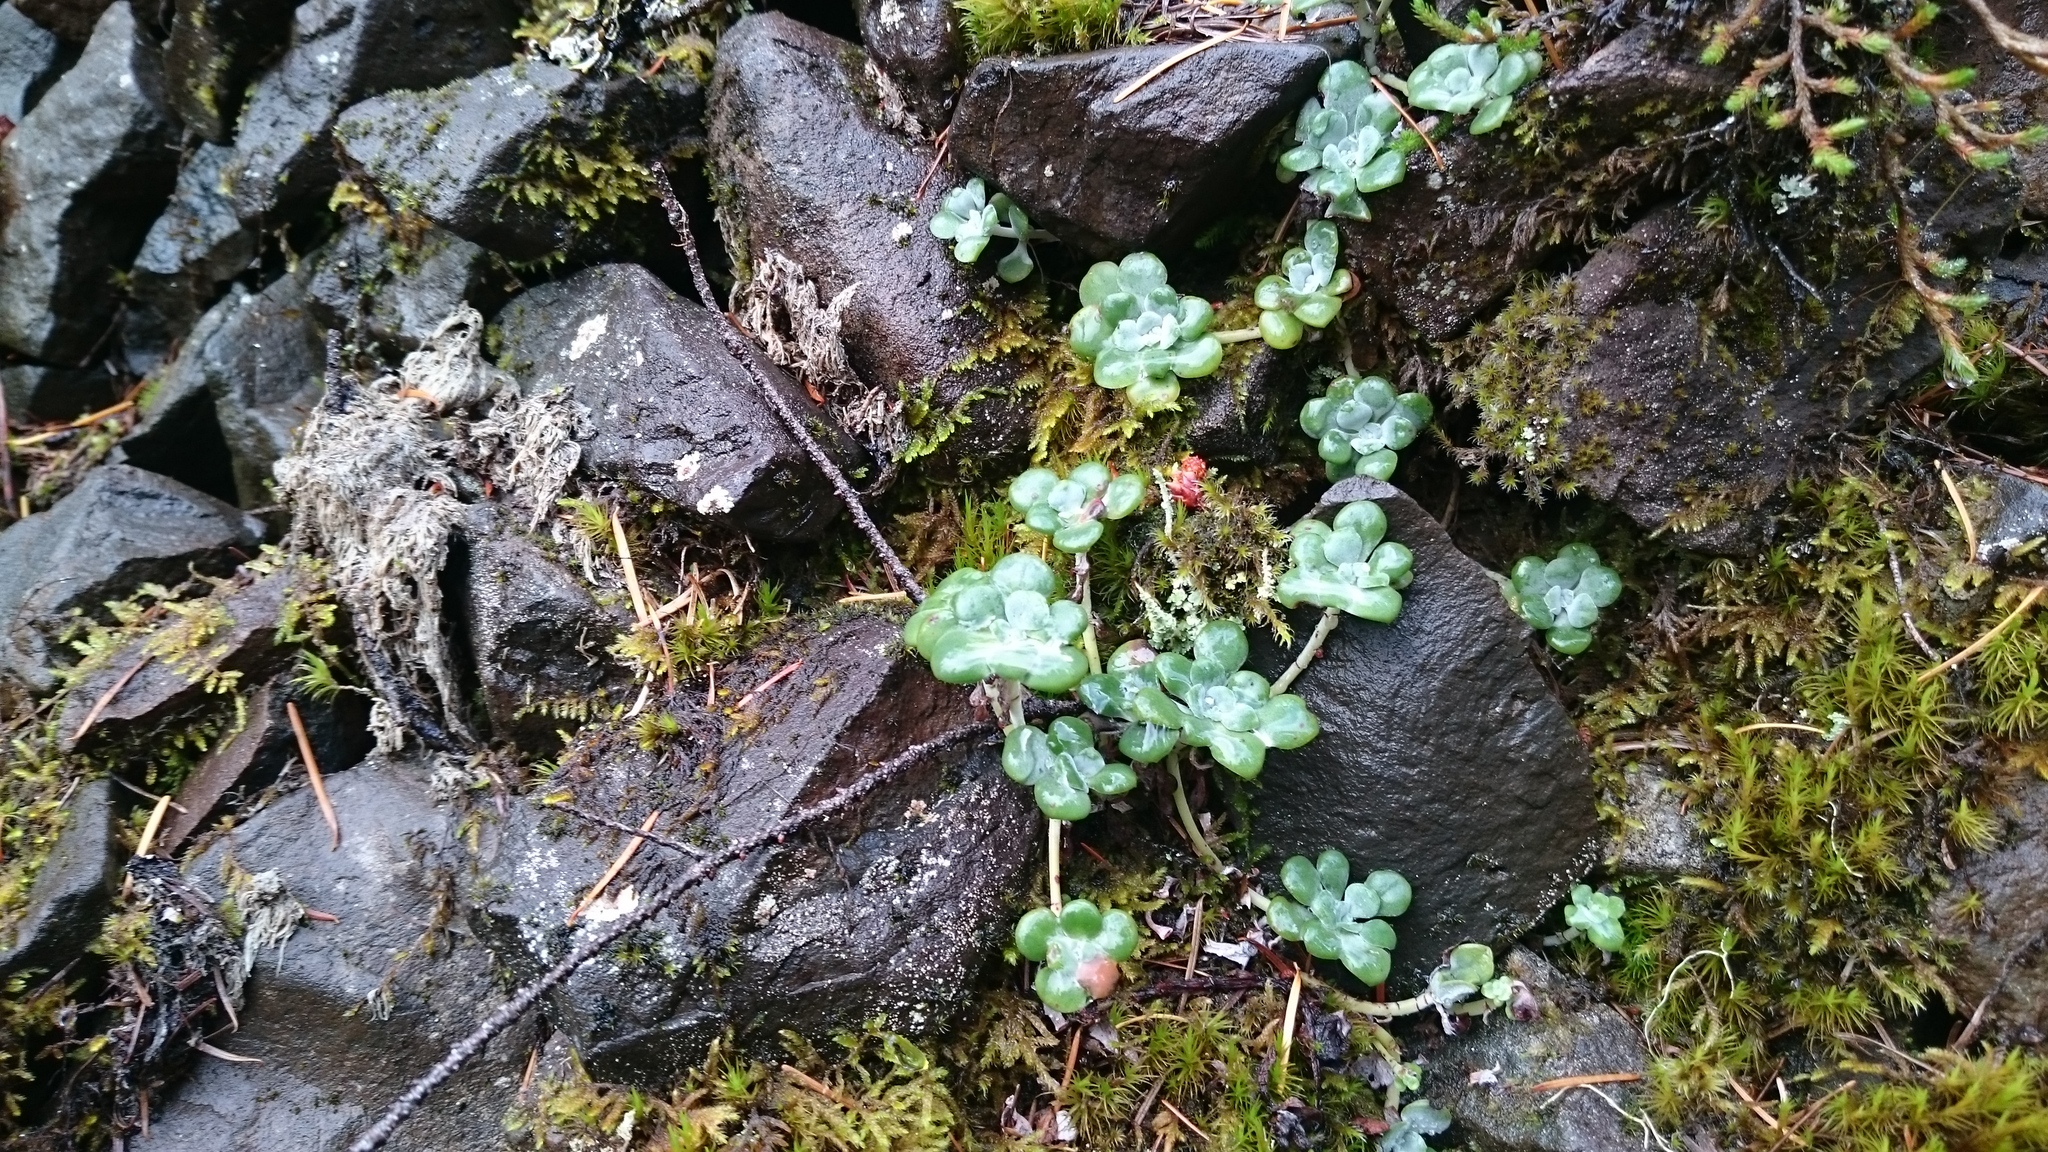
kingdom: Plantae
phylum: Tracheophyta
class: Magnoliopsida
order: Saxifragales
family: Crassulaceae
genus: Sedum
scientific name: Sedum spathulifolium
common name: Colorado stonecrop
